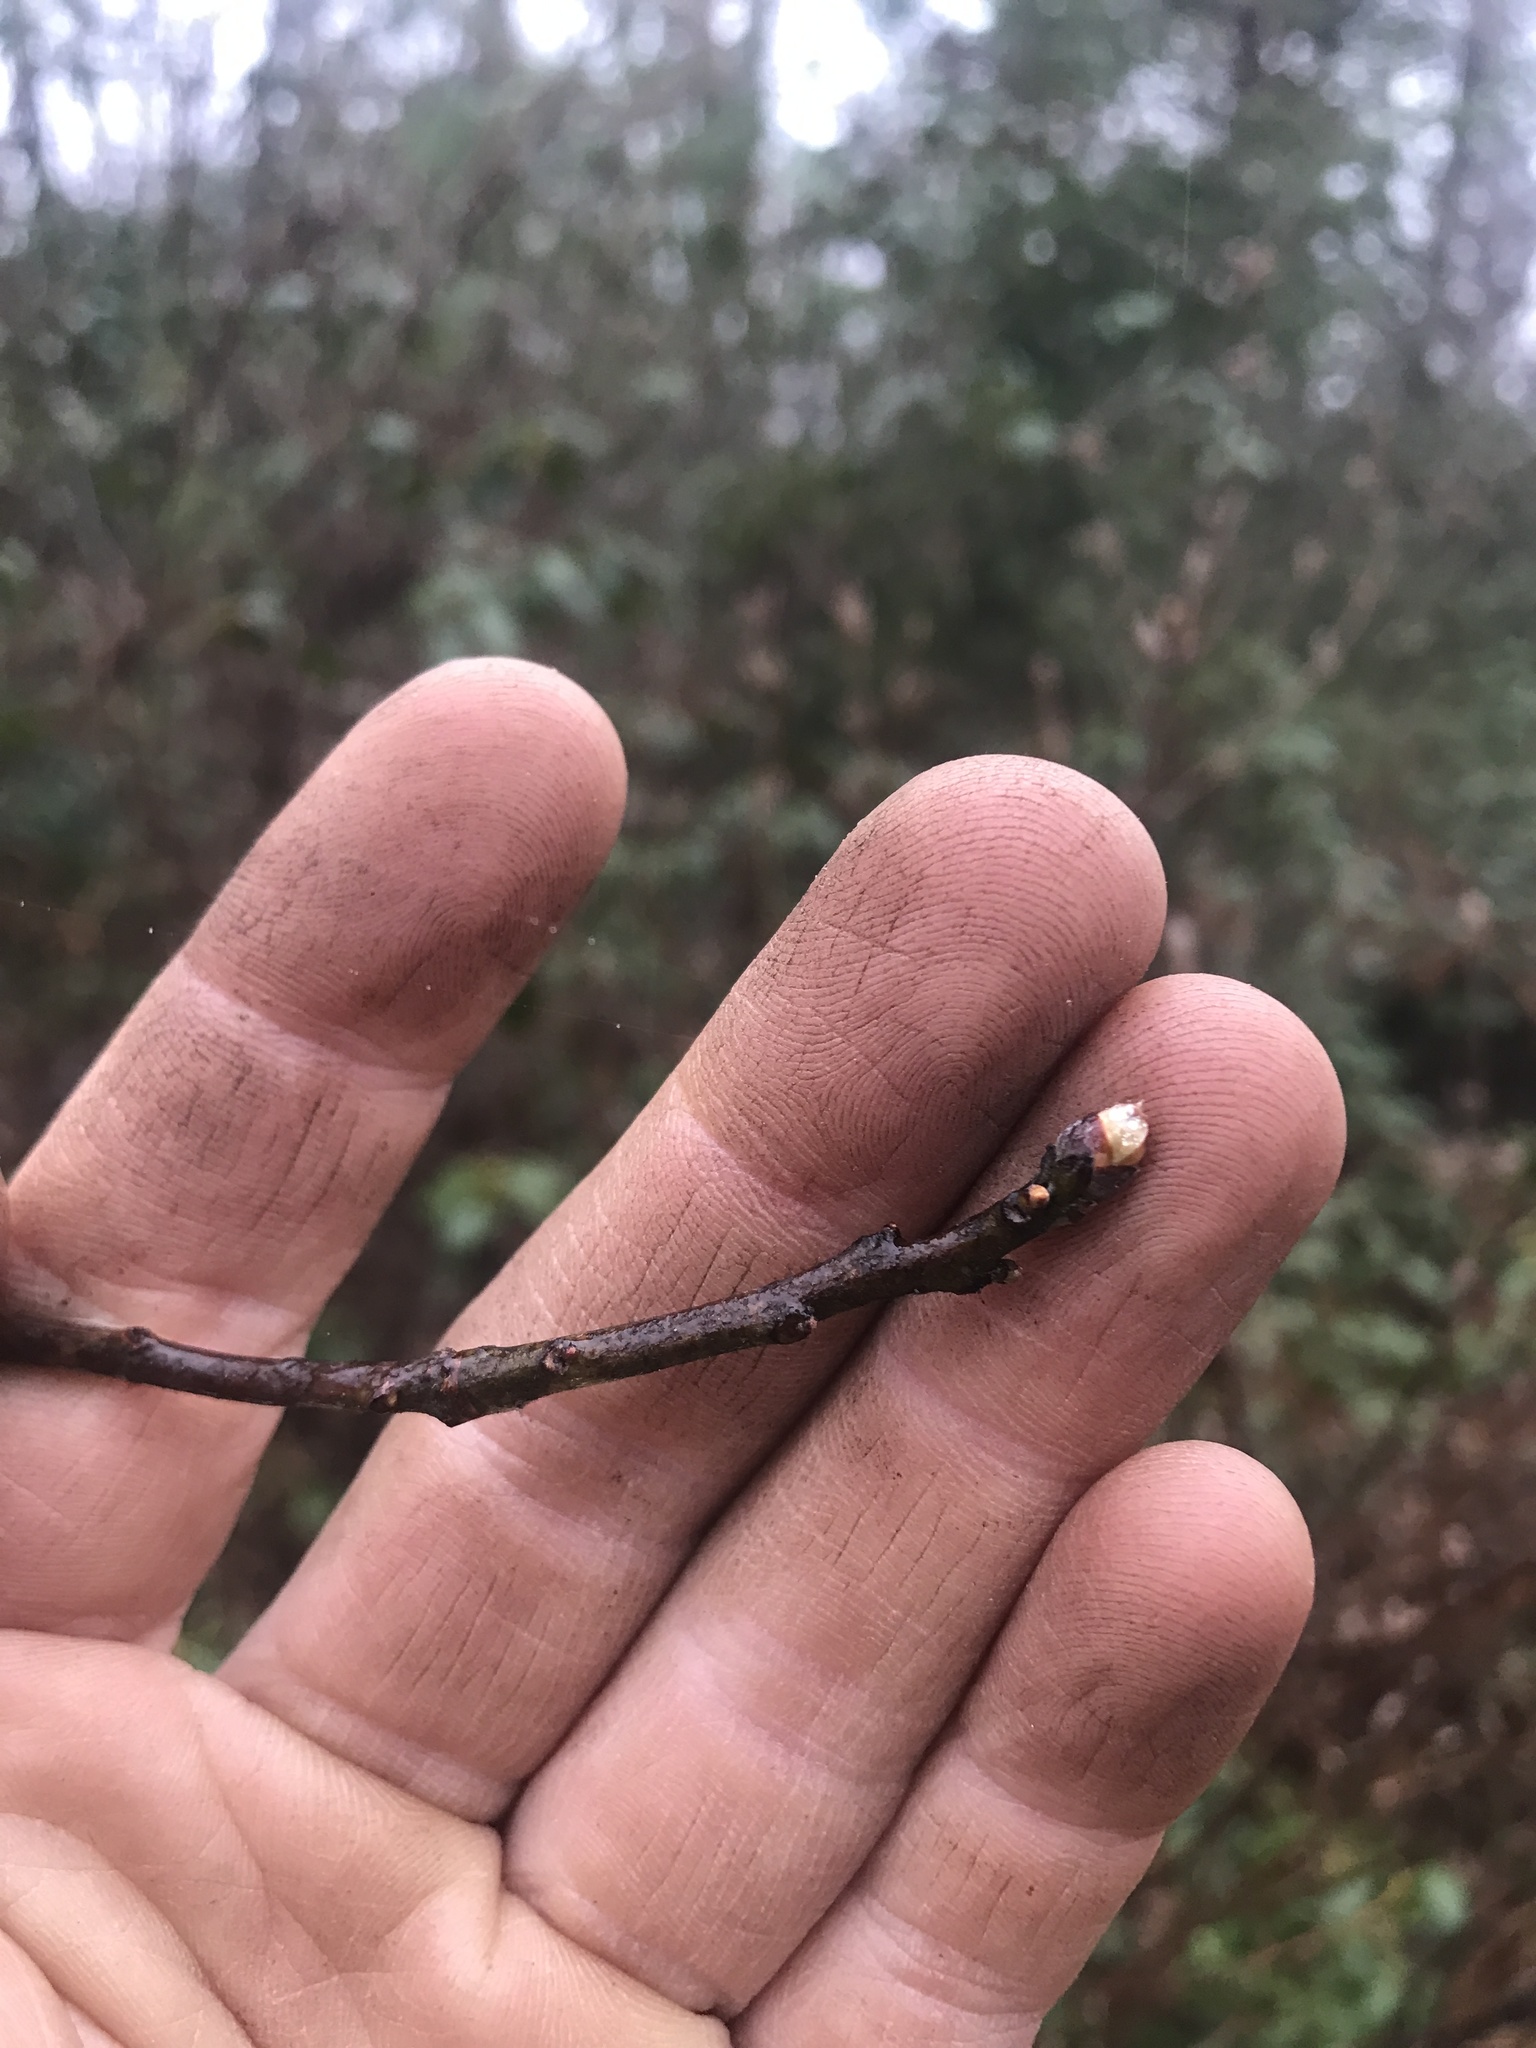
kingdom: Plantae
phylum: Tracheophyta
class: Magnoliopsida
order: Laurales
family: Lauraceae
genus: Sassafras
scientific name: Sassafras albidum
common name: Sassafras
